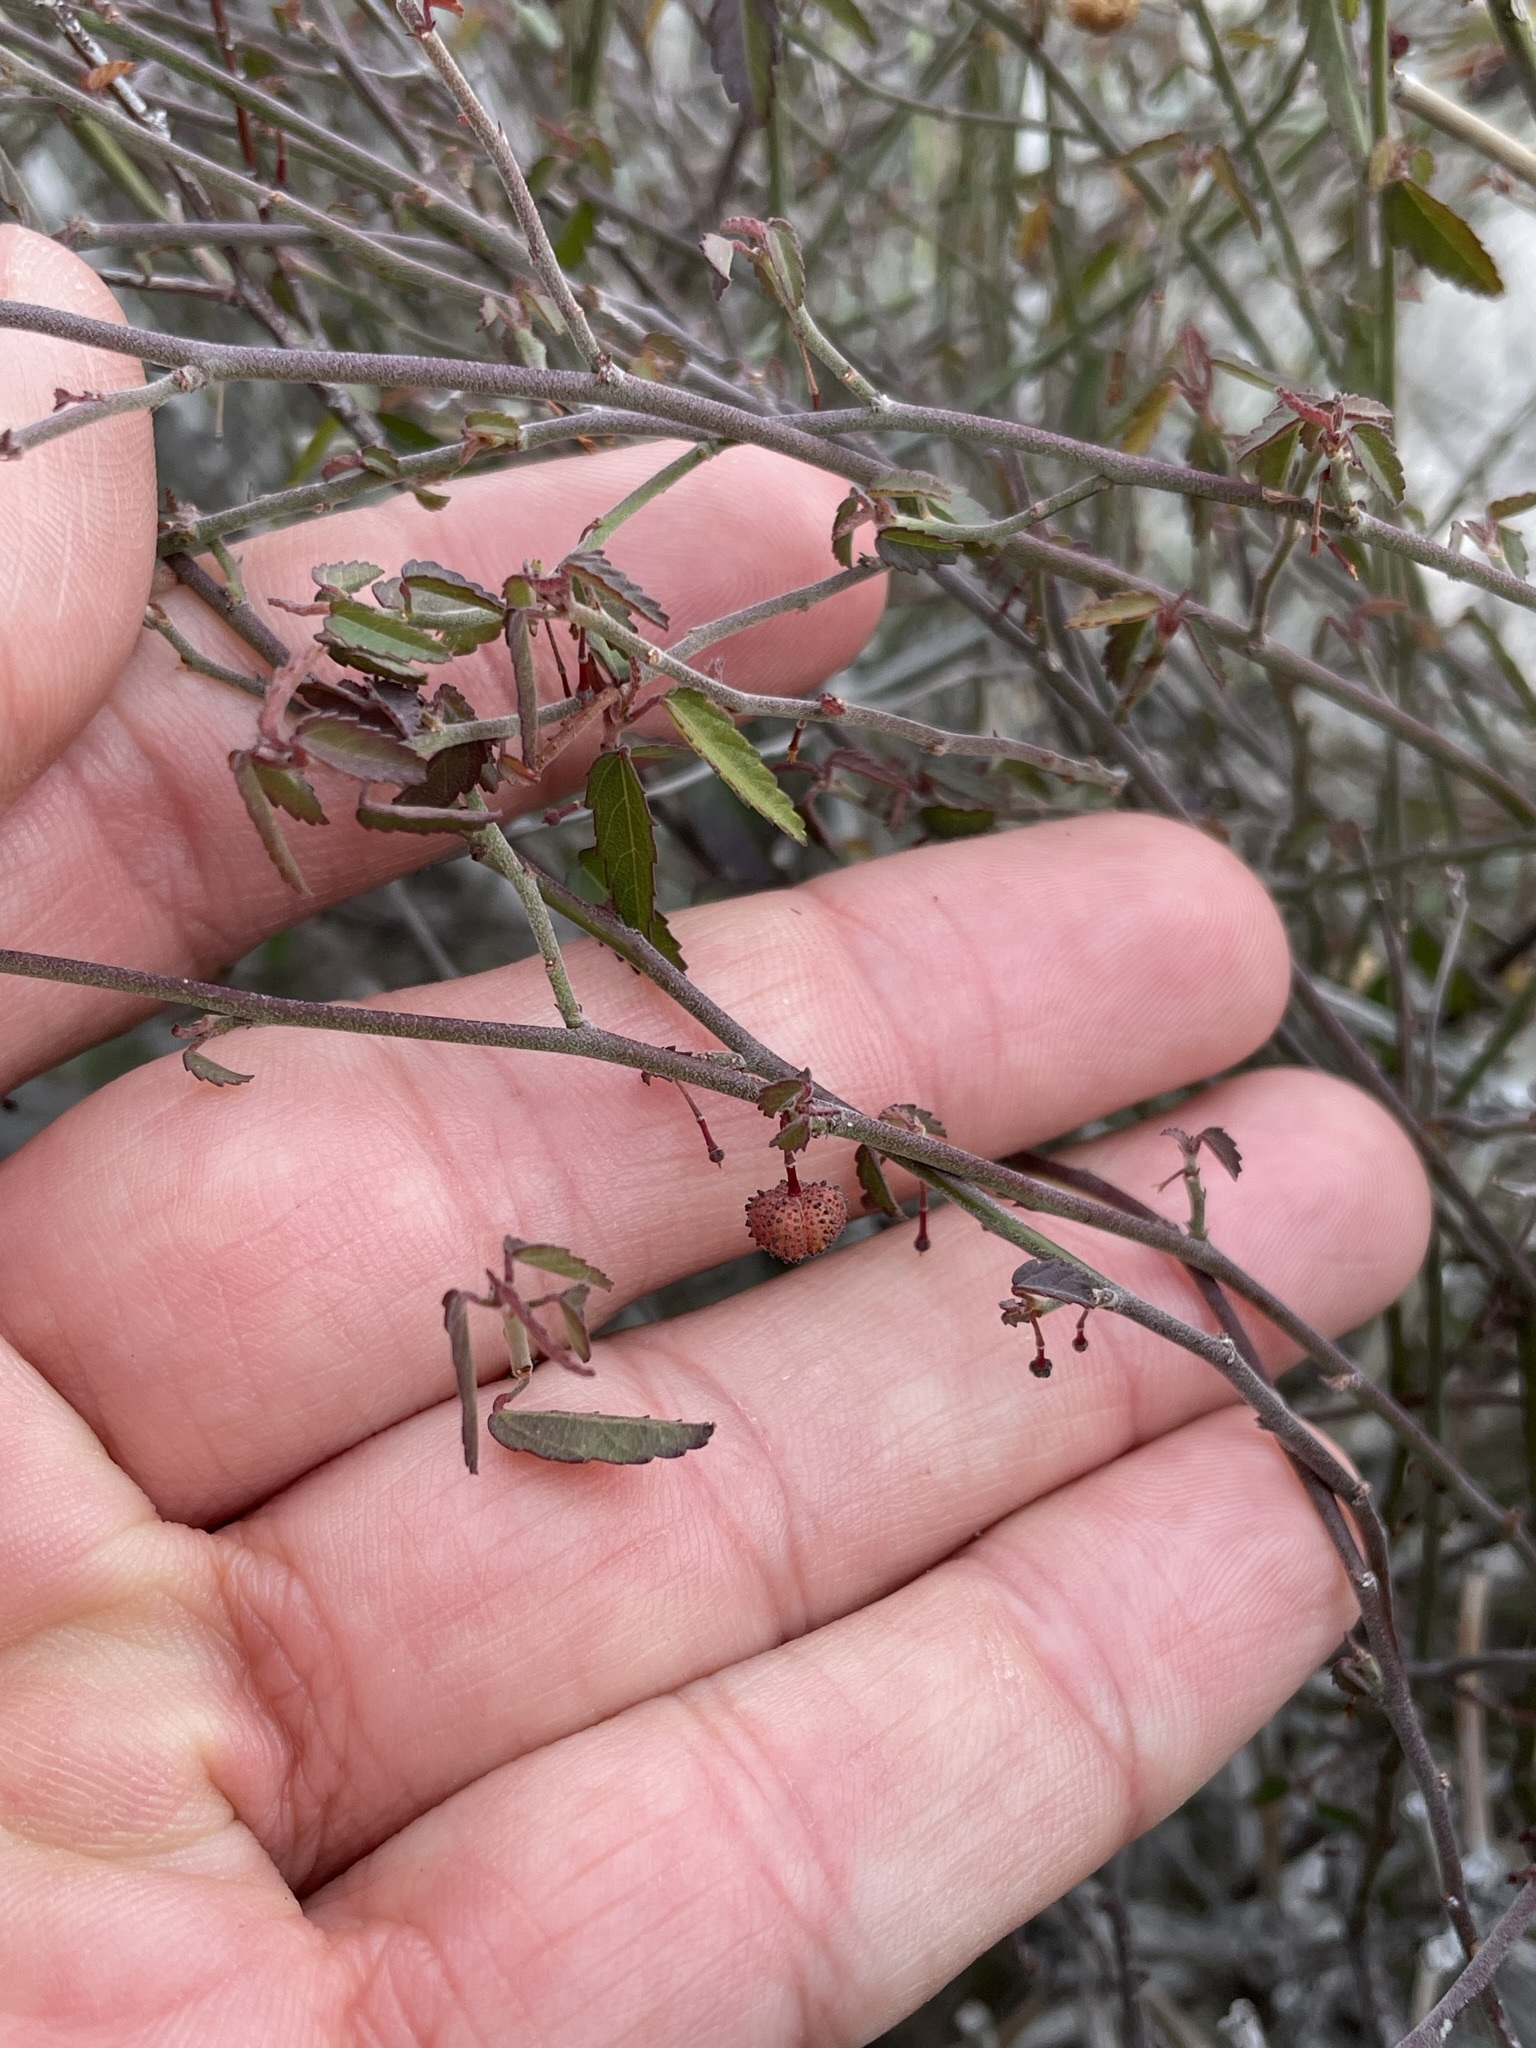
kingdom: Plantae
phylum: Tracheophyta
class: Magnoliopsida
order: Malvales
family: Malvaceae
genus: Ayenia
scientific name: Ayenia compacta
